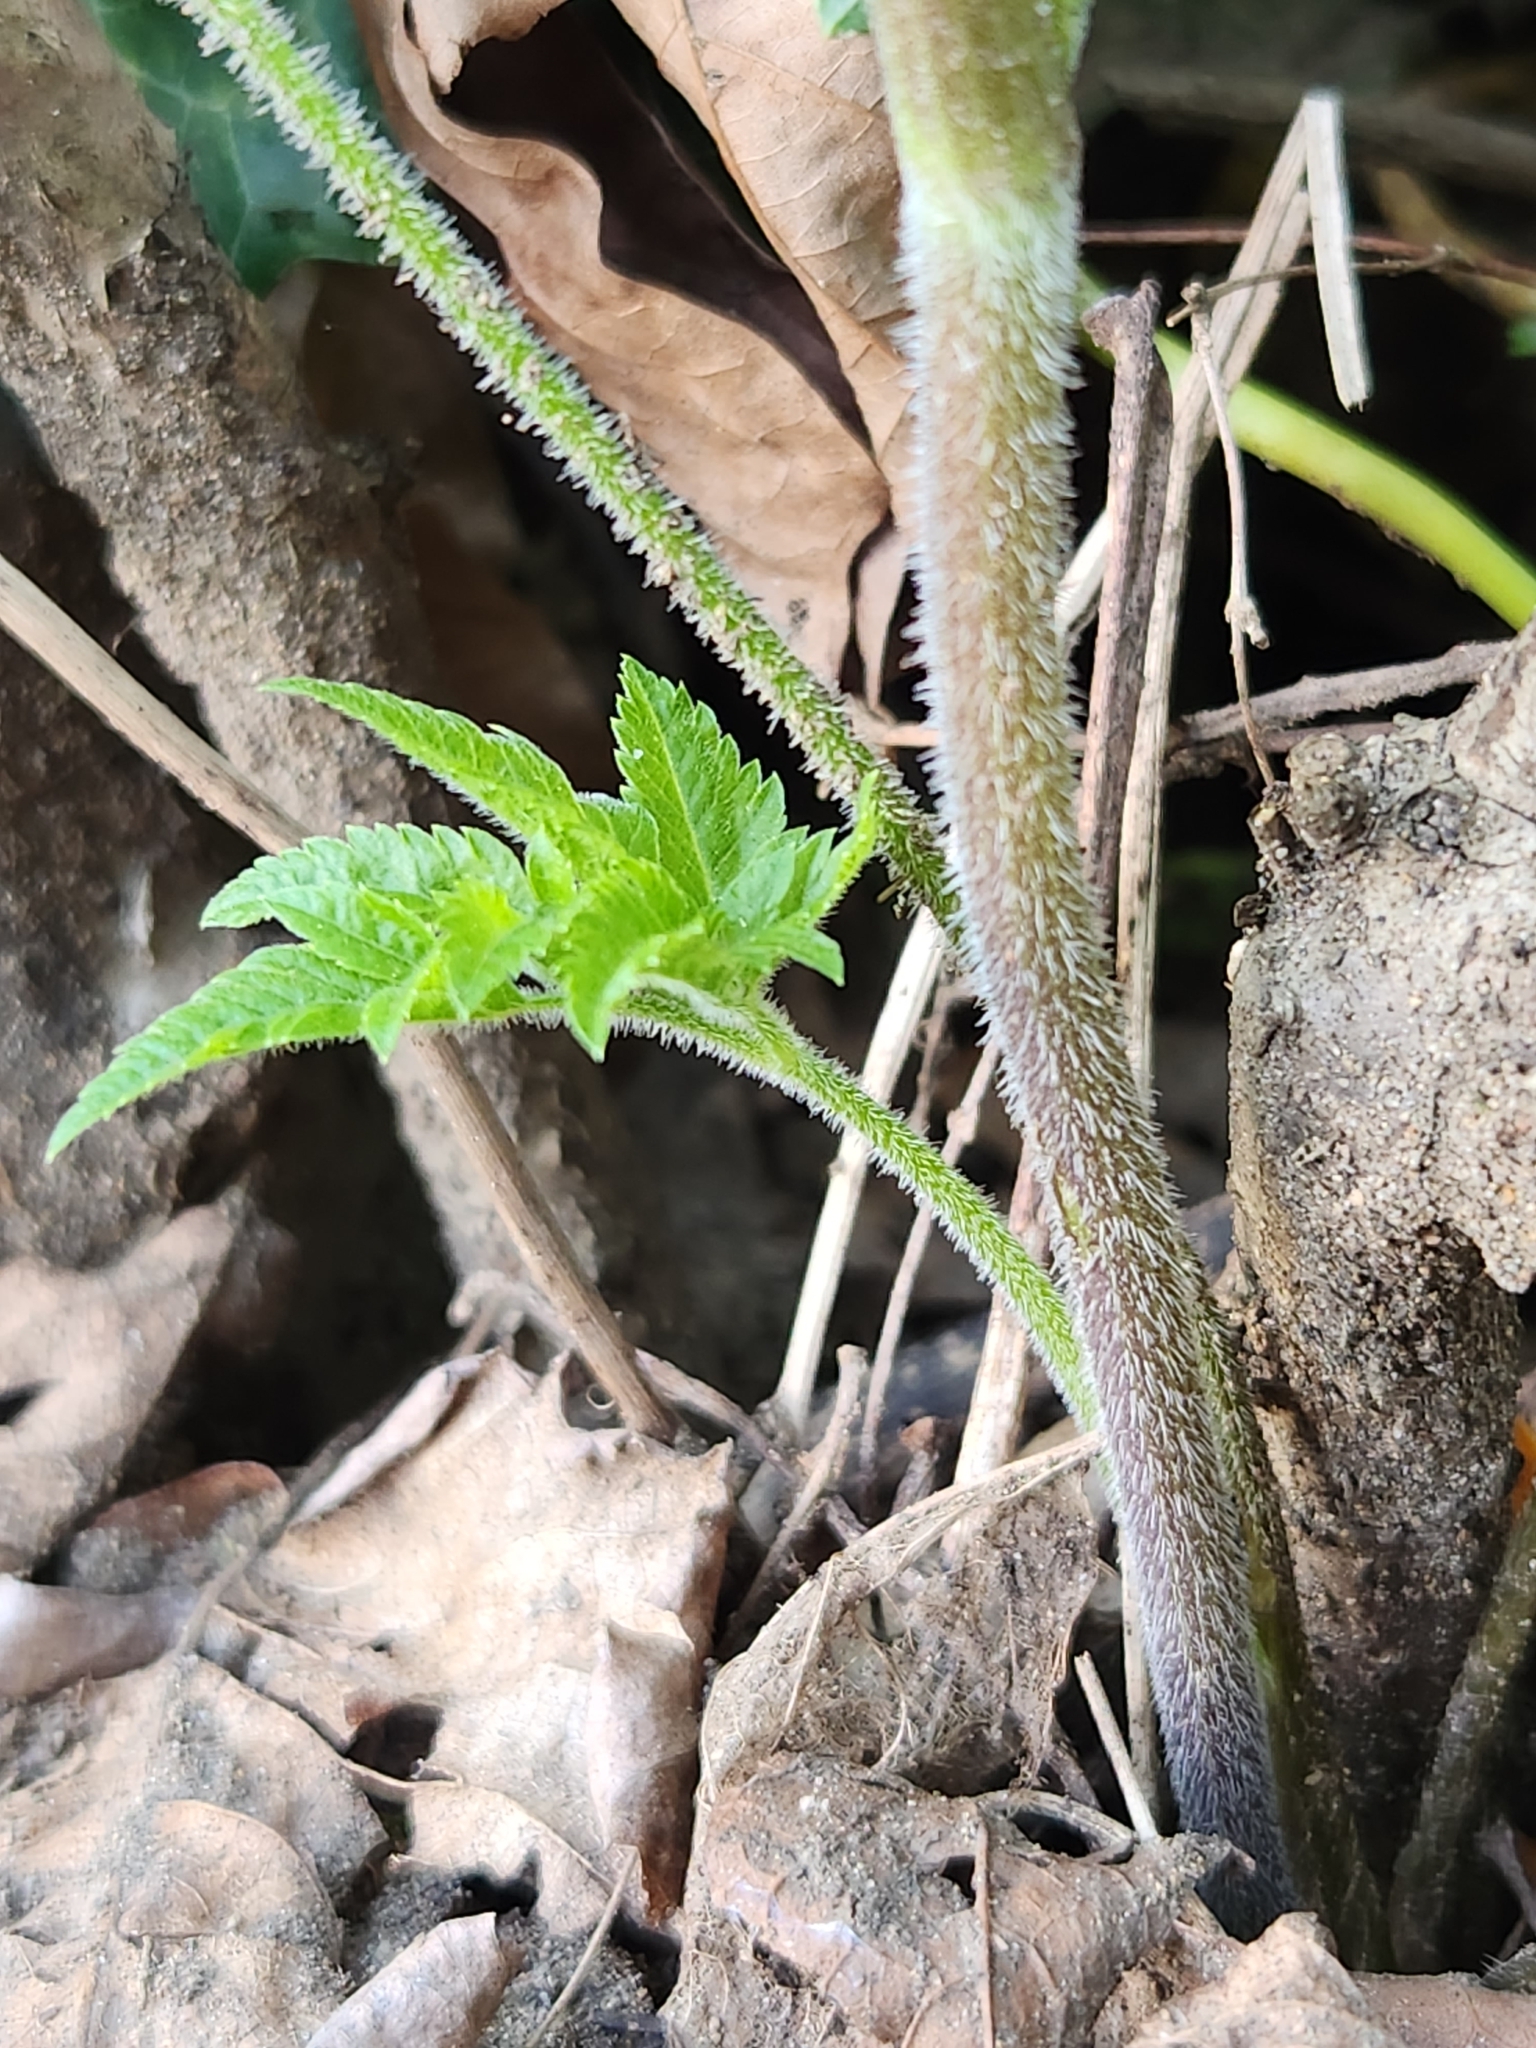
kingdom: Plantae
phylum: Tracheophyta
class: Magnoliopsida
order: Apiales
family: Apiaceae
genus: Osmorhiza
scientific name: Osmorhiza berteroi
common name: Mountain sweet cicely
